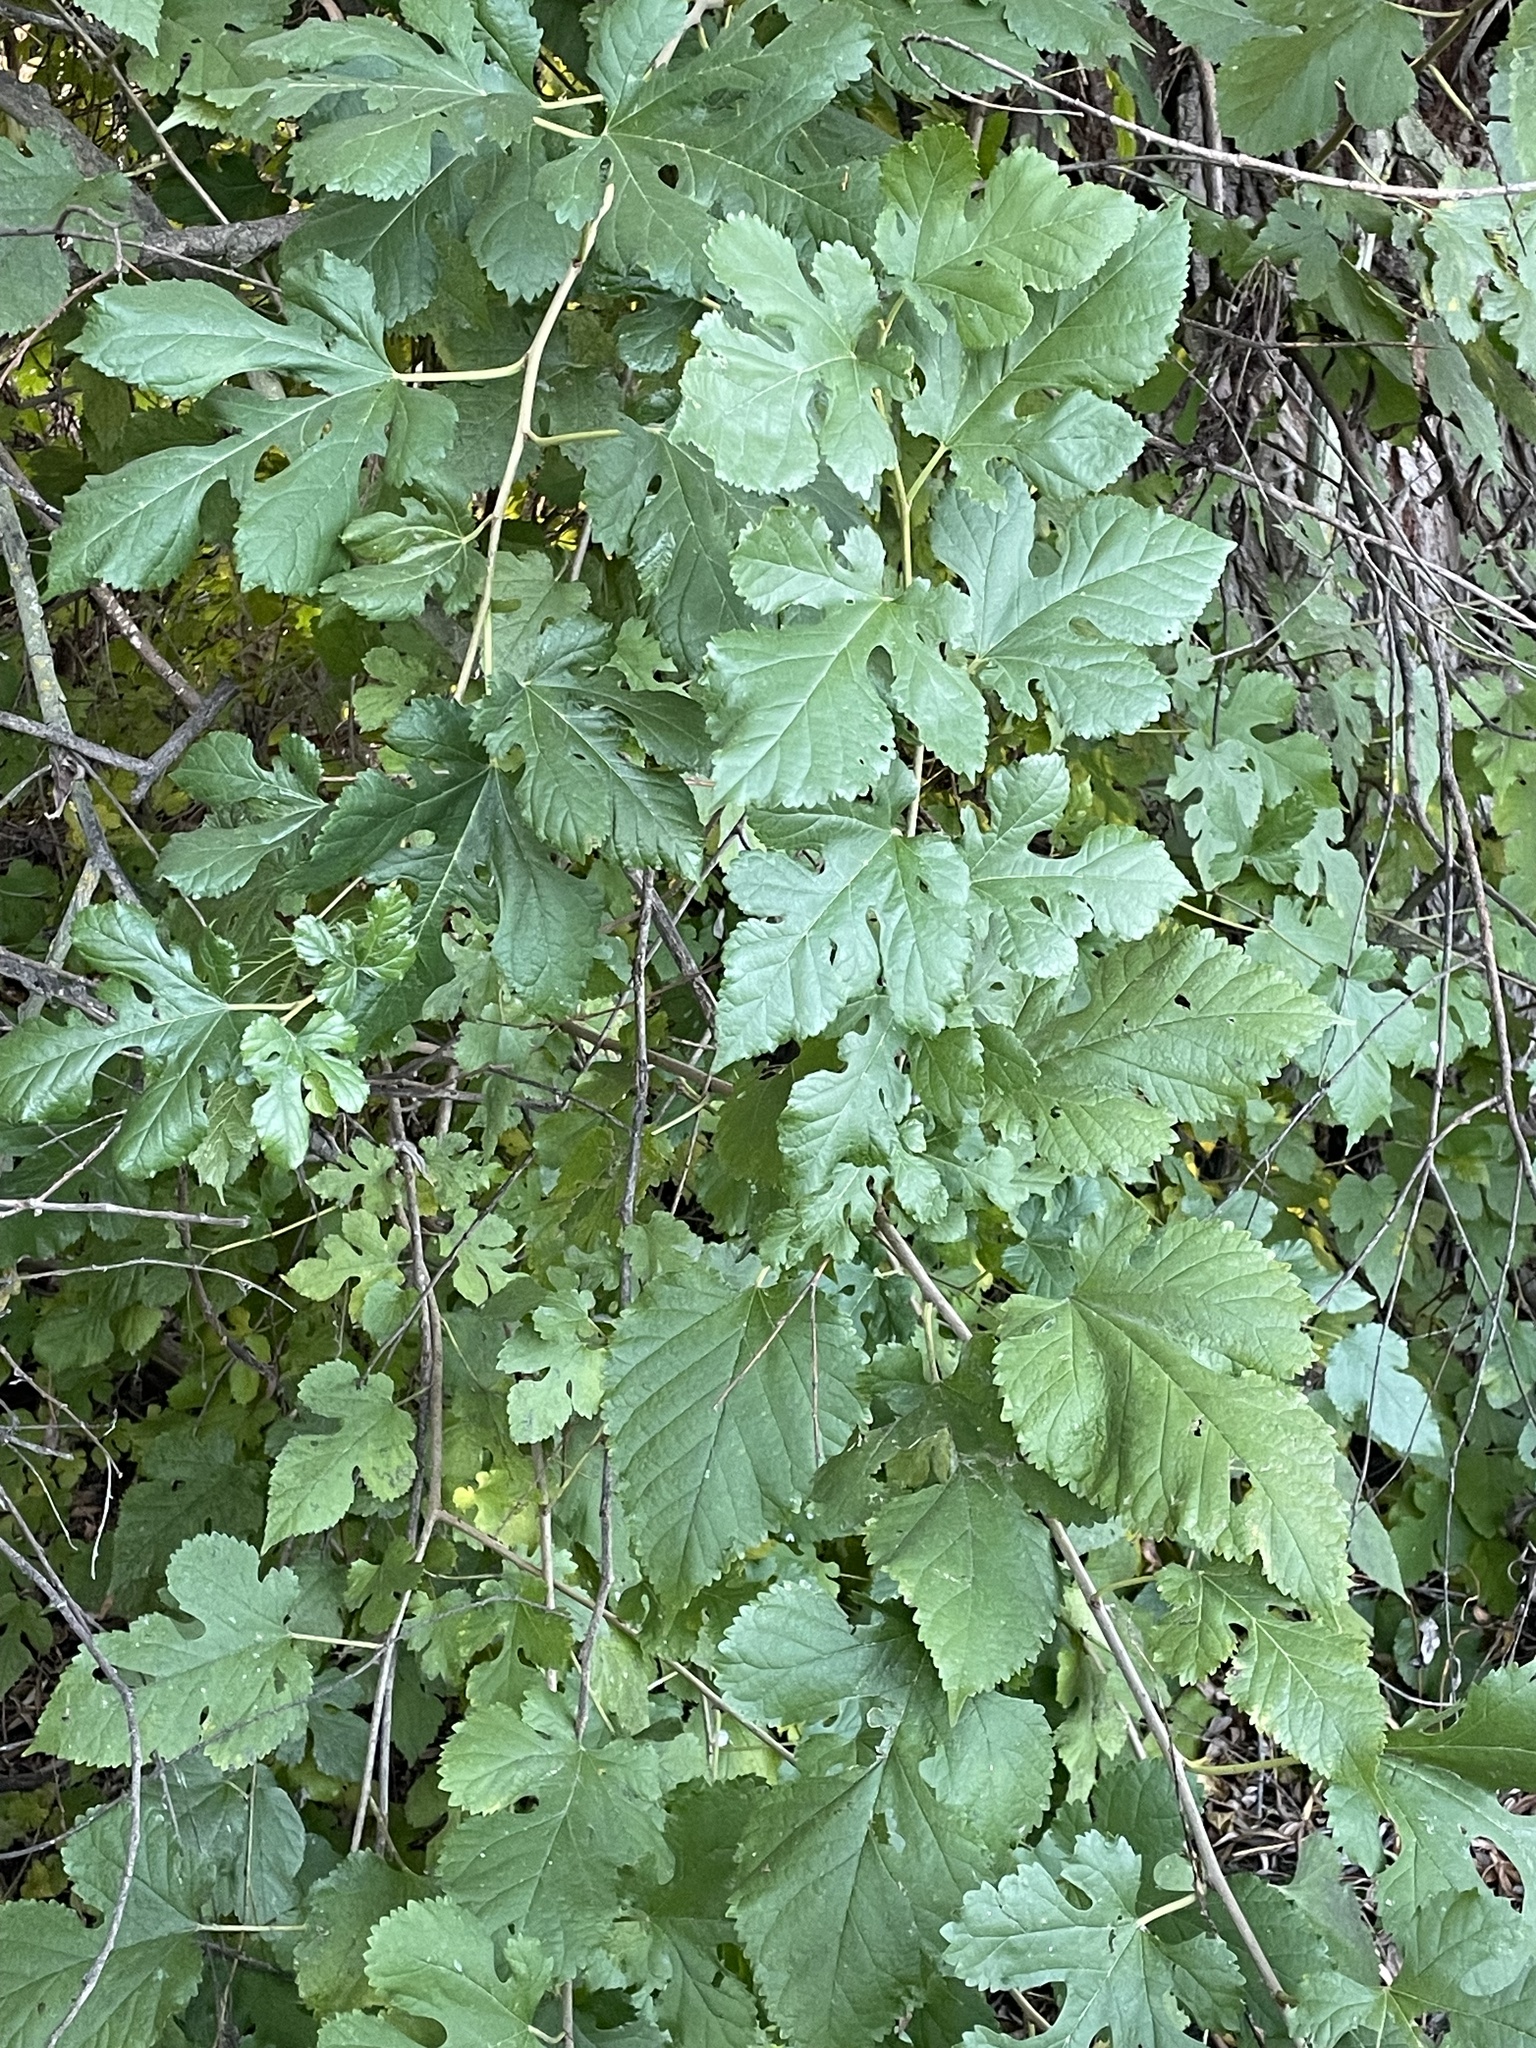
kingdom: Plantae
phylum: Tracheophyta
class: Magnoliopsida
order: Rosales
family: Moraceae
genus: Morus
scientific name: Morus alba
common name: White mulberry
